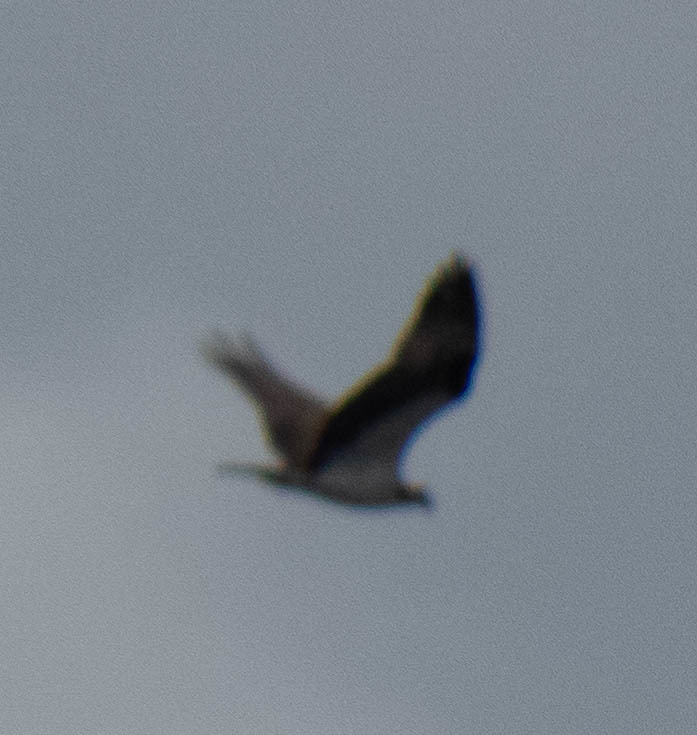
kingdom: Animalia
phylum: Chordata
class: Aves
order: Accipitriformes
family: Pandionidae
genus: Pandion
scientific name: Pandion haliaetus
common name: Osprey
